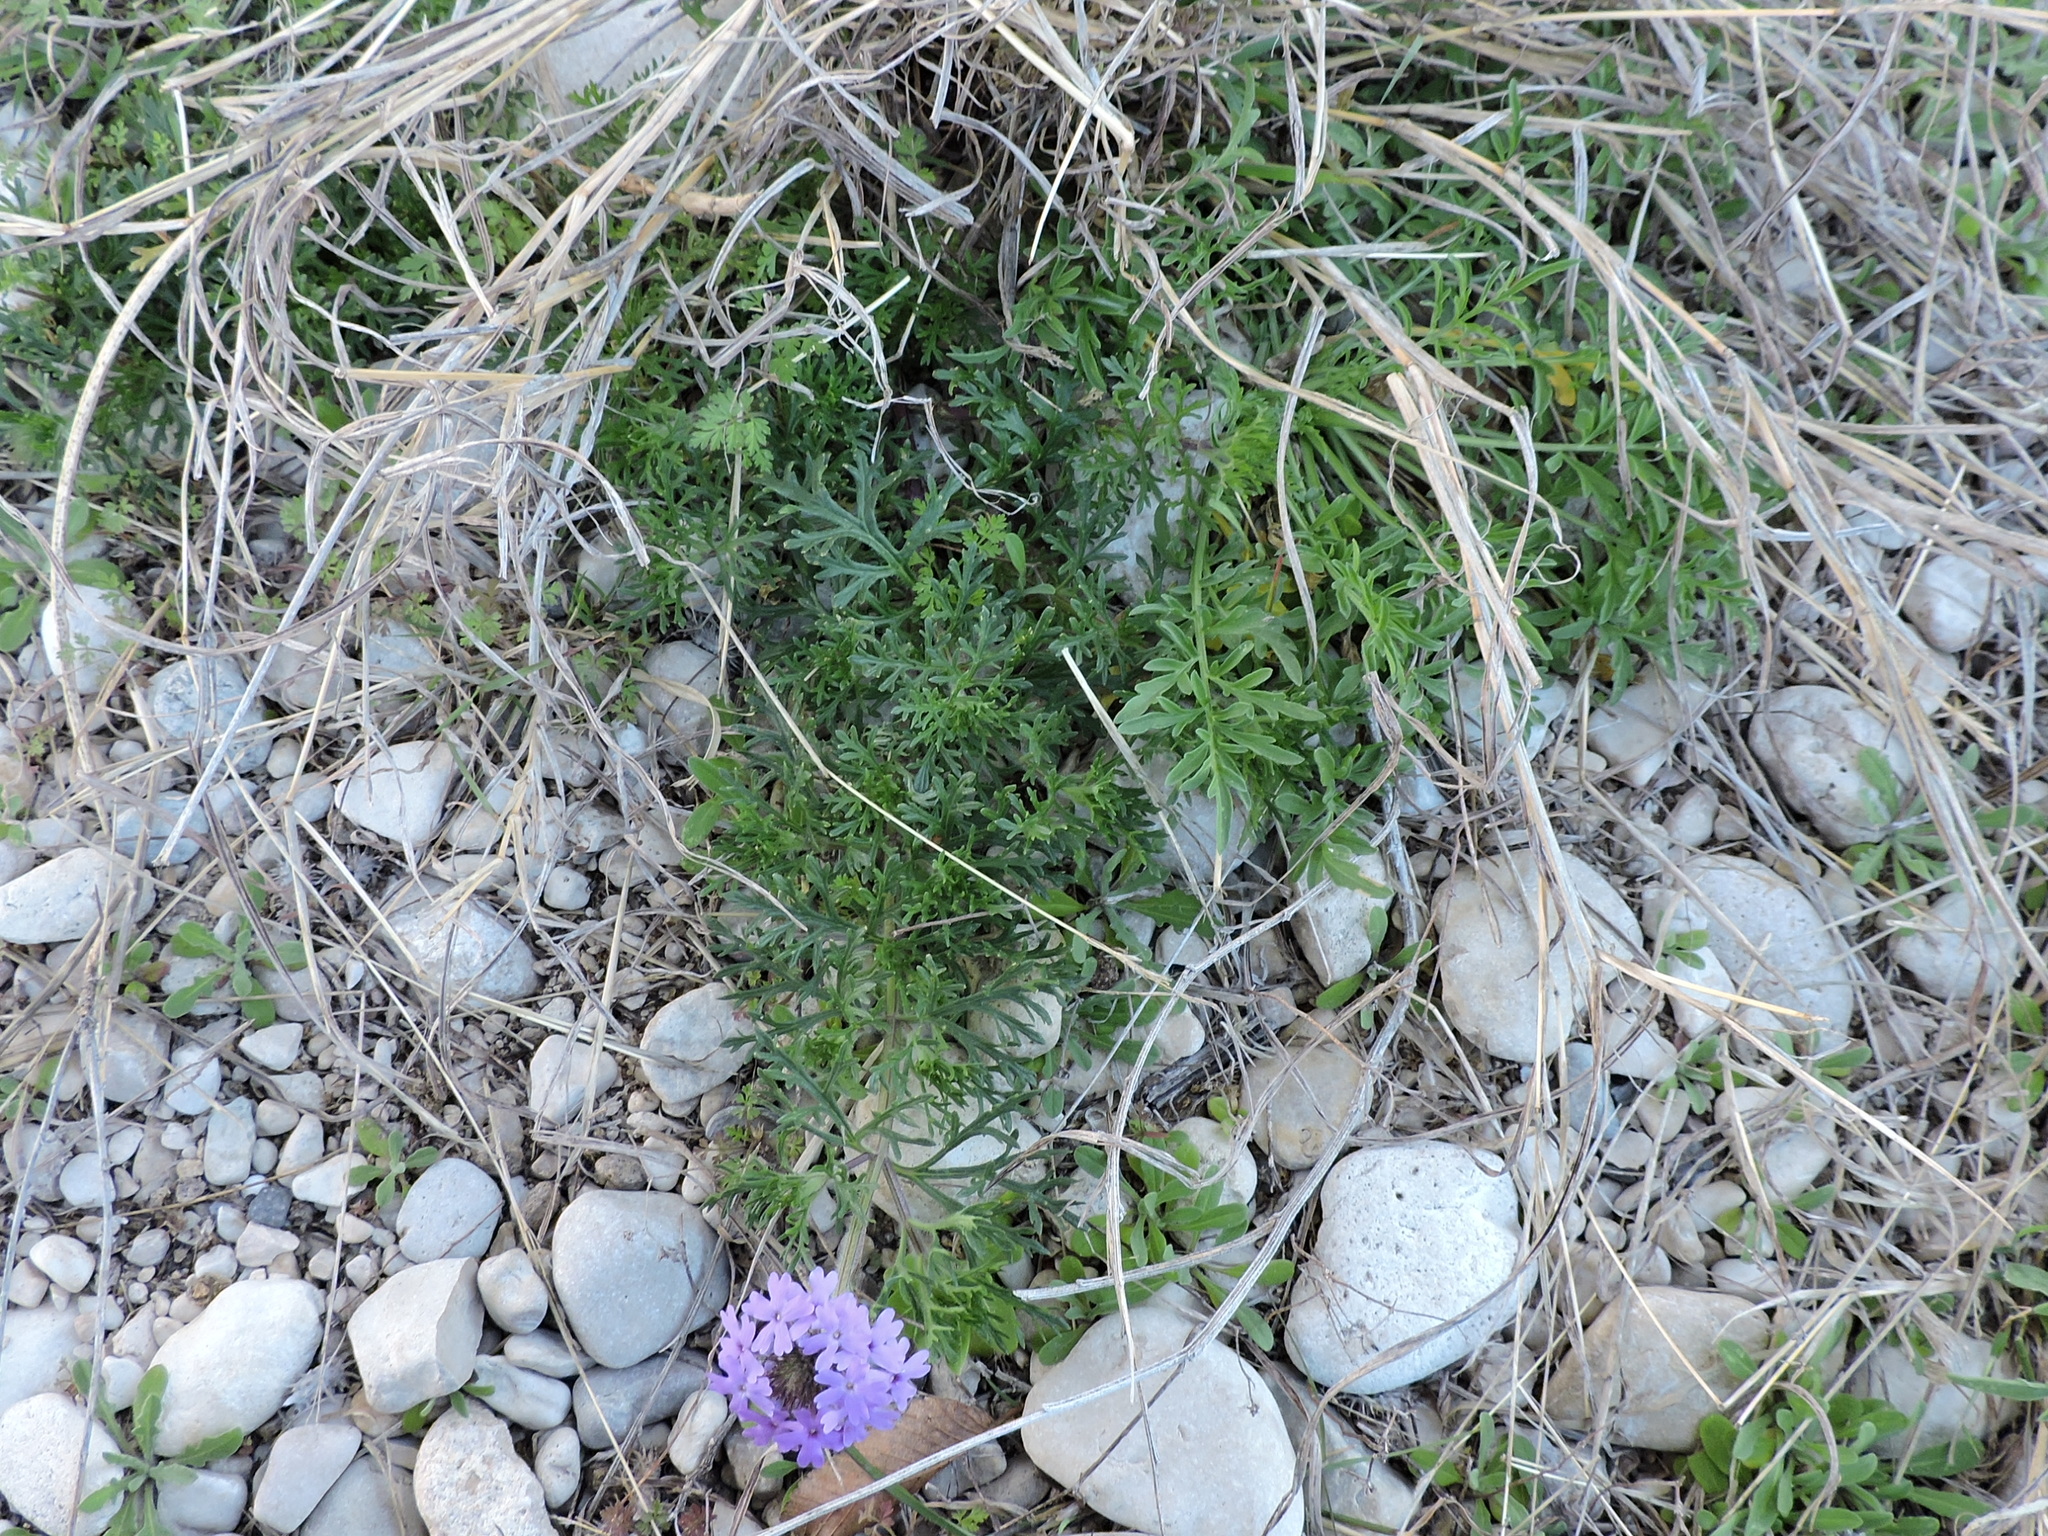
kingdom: Plantae
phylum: Tracheophyta
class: Magnoliopsida
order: Lamiales
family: Verbenaceae
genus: Verbena
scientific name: Verbena bipinnatifida
